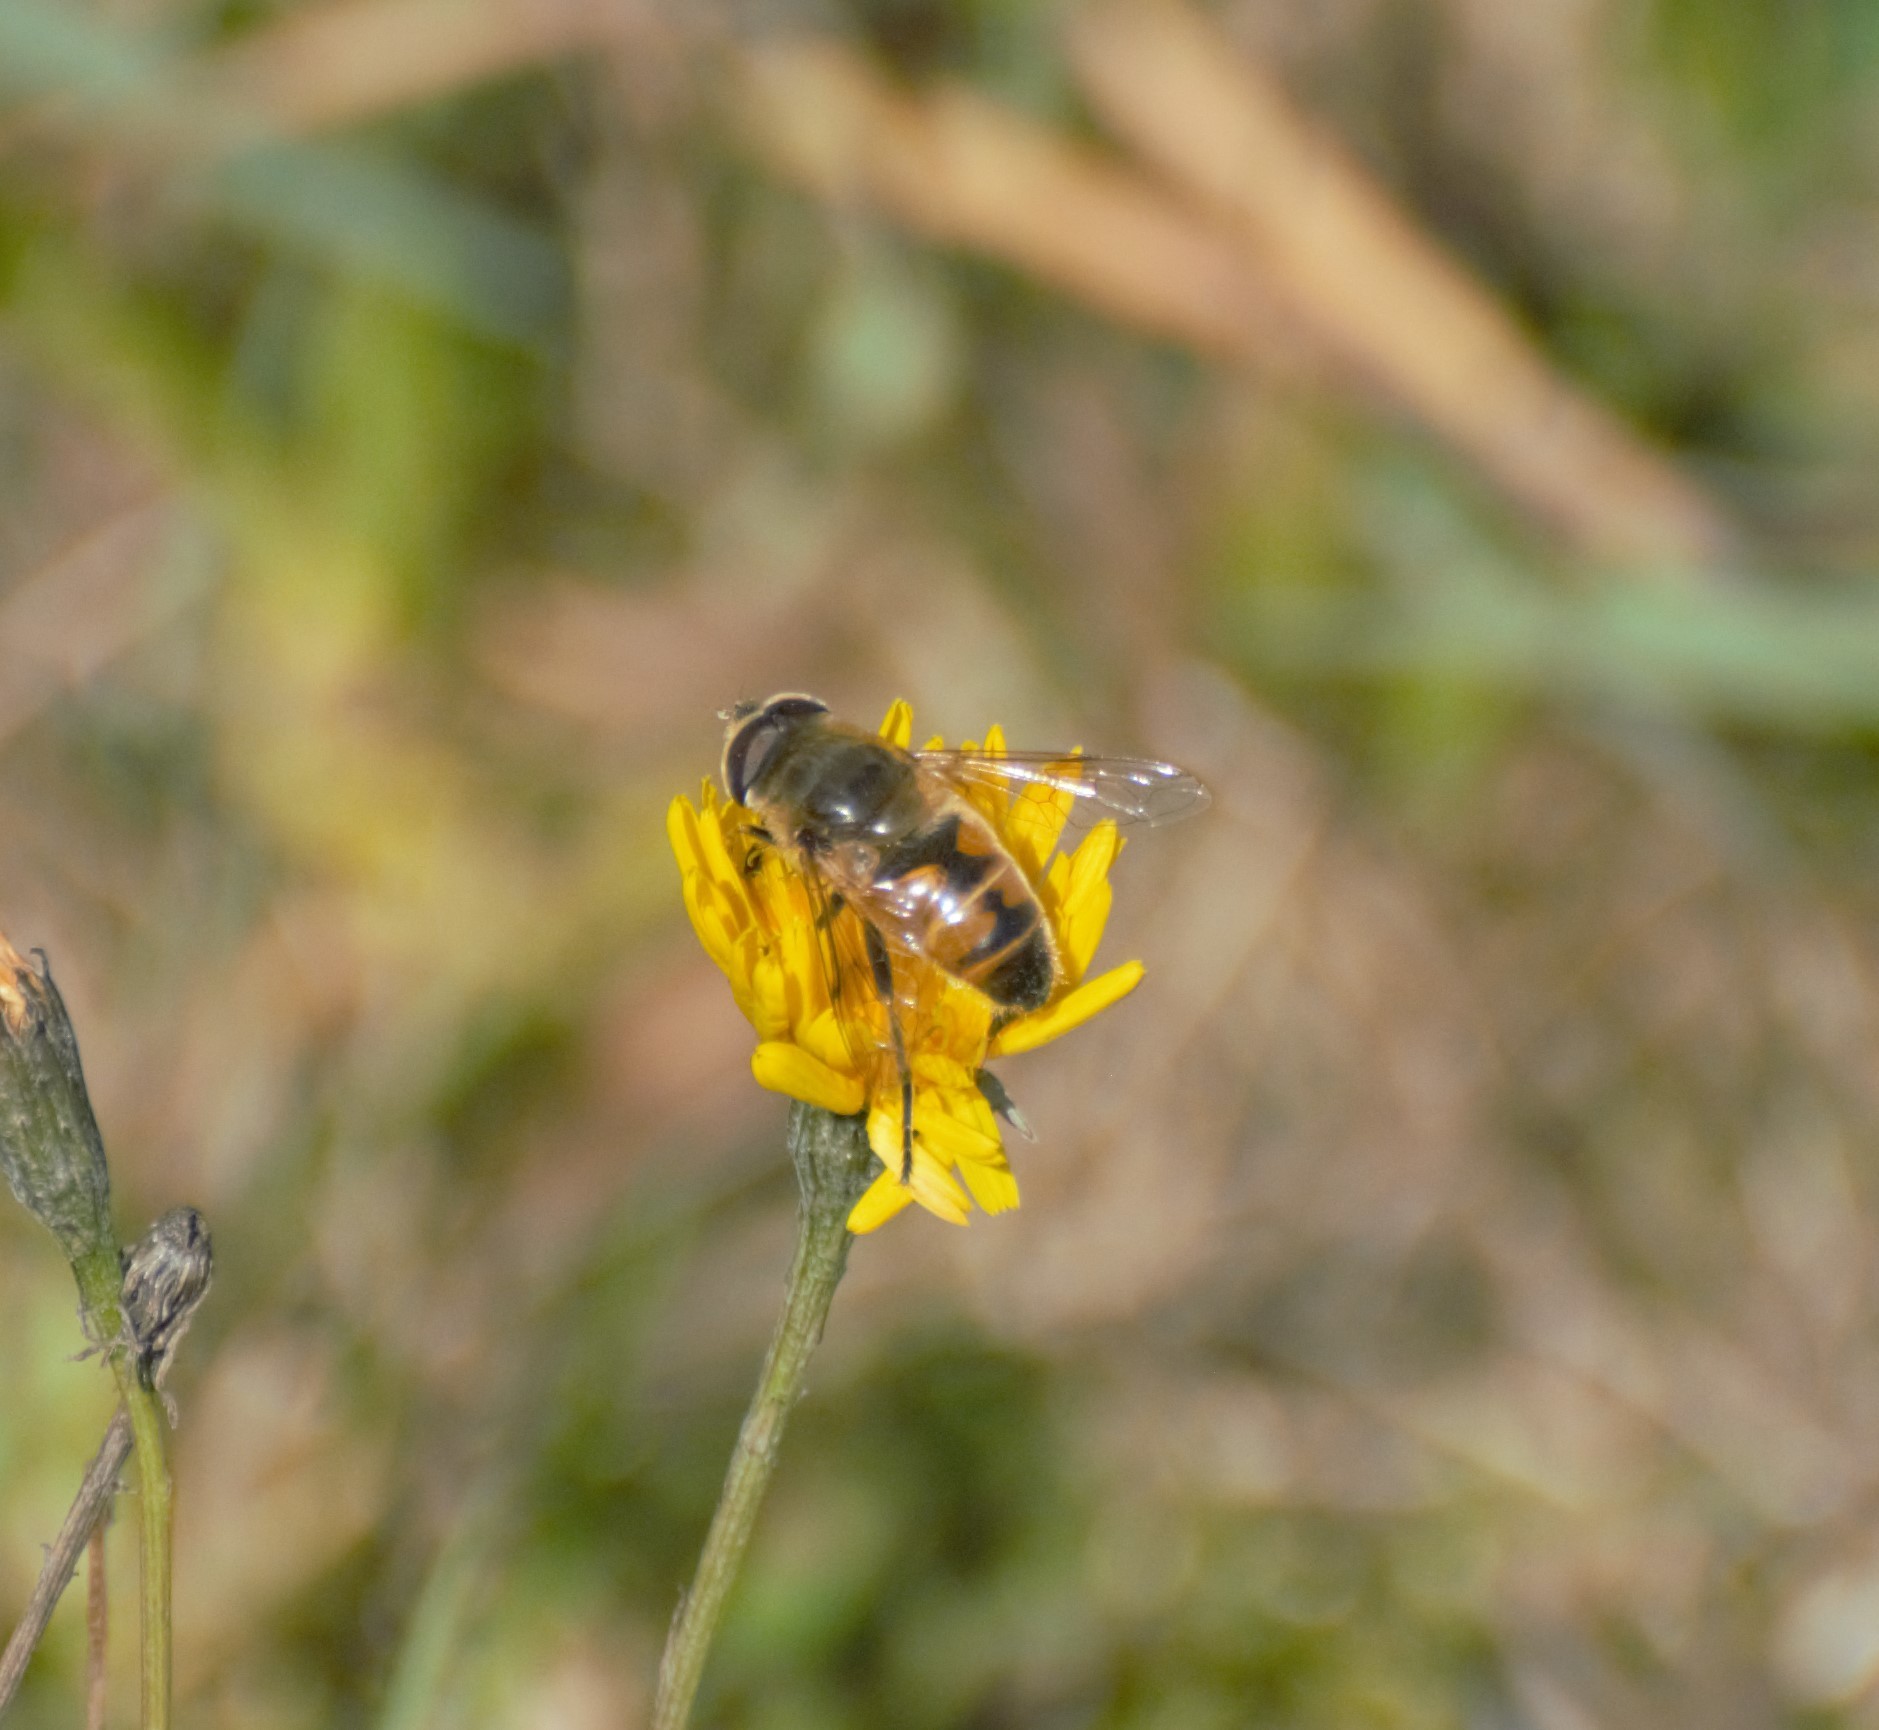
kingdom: Animalia
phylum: Arthropoda
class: Insecta
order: Diptera
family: Syrphidae
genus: Eristalis
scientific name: Eristalis tenax
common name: Drone fly
